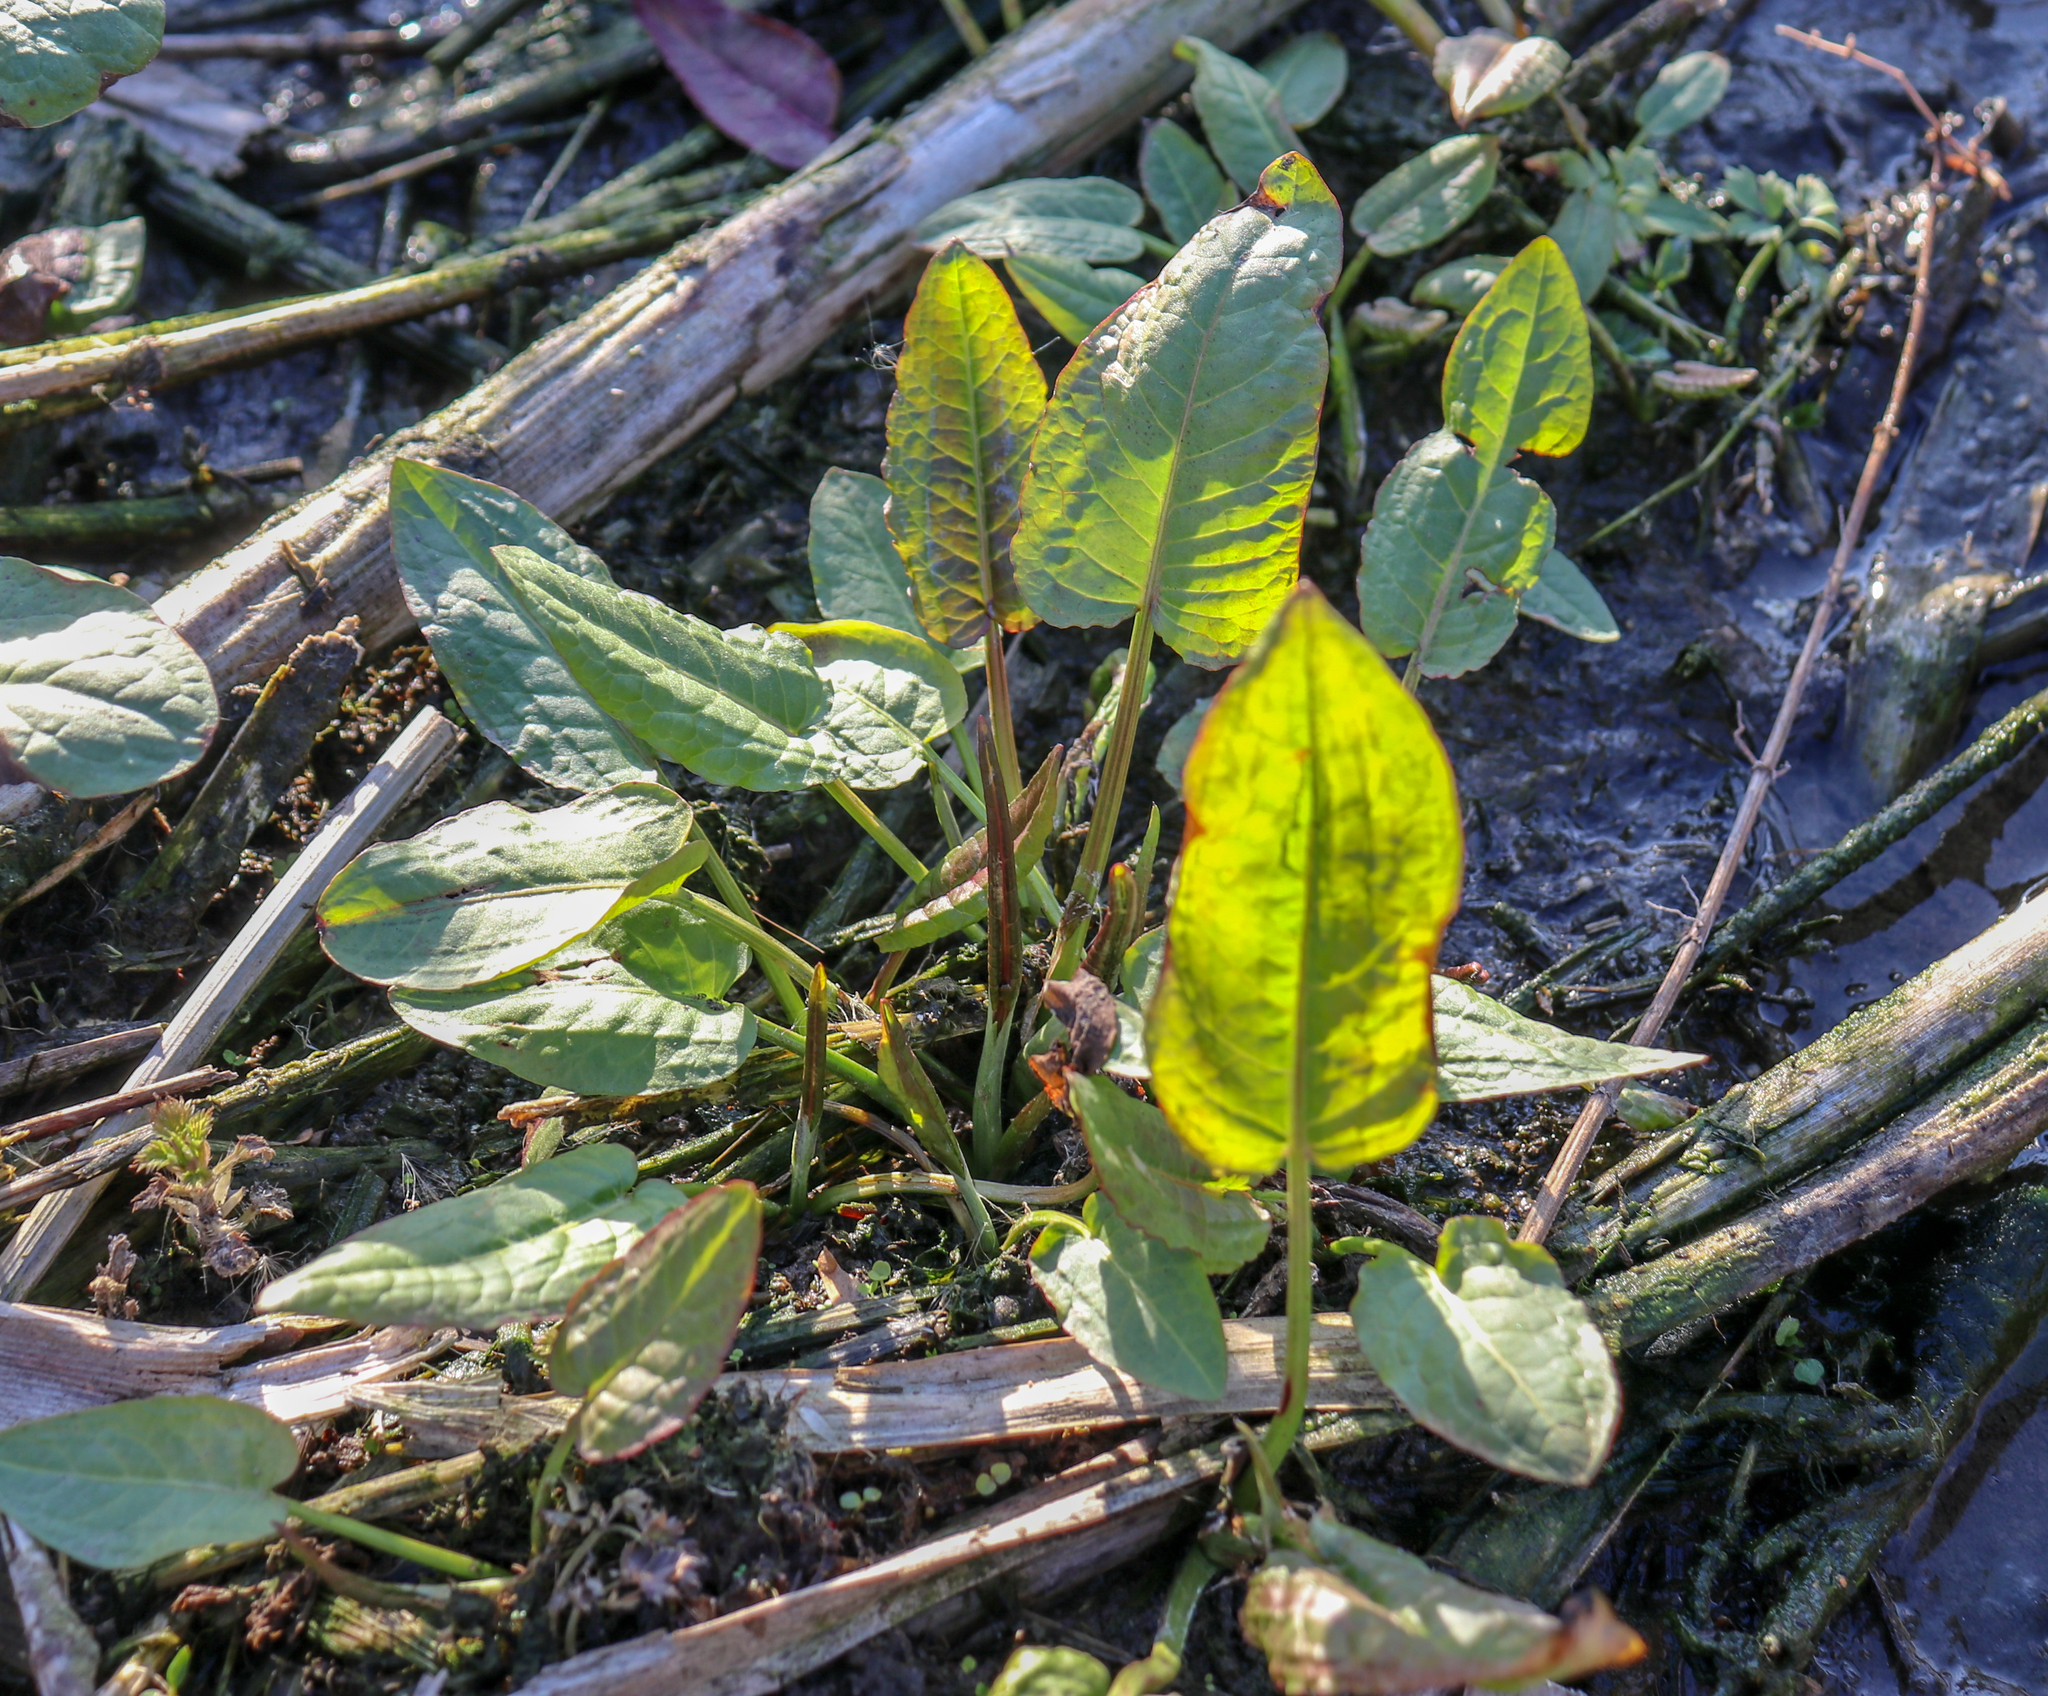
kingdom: Plantae
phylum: Tracheophyta
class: Magnoliopsida
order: Caryophyllales
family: Polygonaceae
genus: Rumex
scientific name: Rumex obtusifolius
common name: Bitter dock
